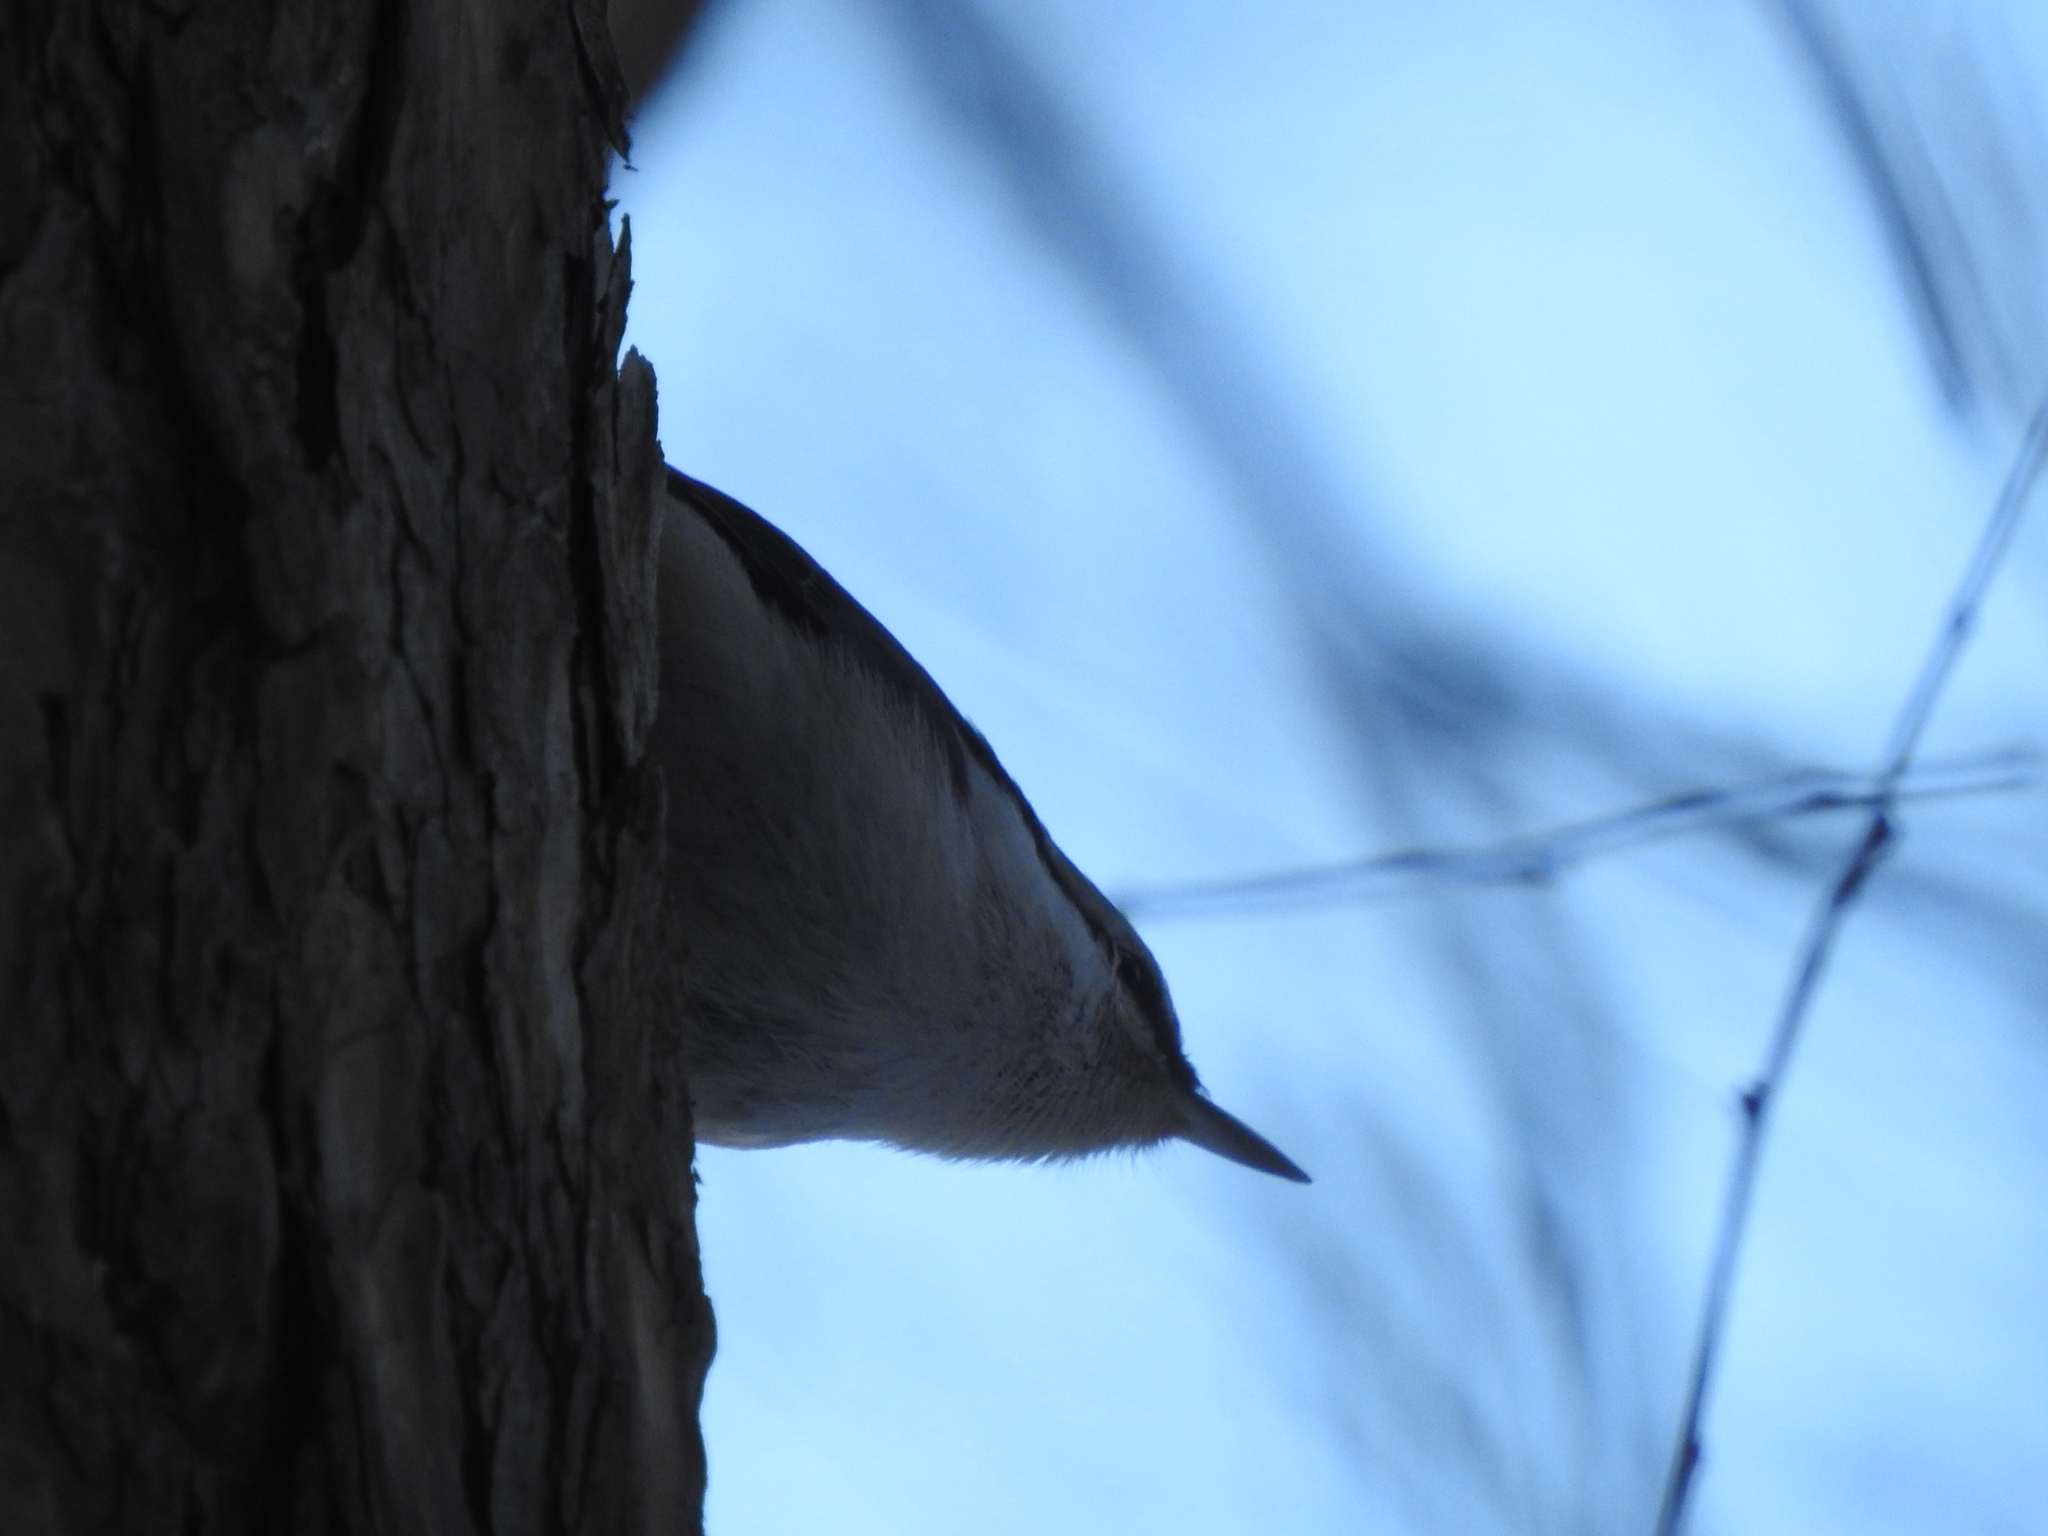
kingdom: Animalia
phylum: Chordata
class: Aves
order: Passeriformes
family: Sittidae
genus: Sitta
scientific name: Sitta europaea
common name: Eurasian nuthatch
